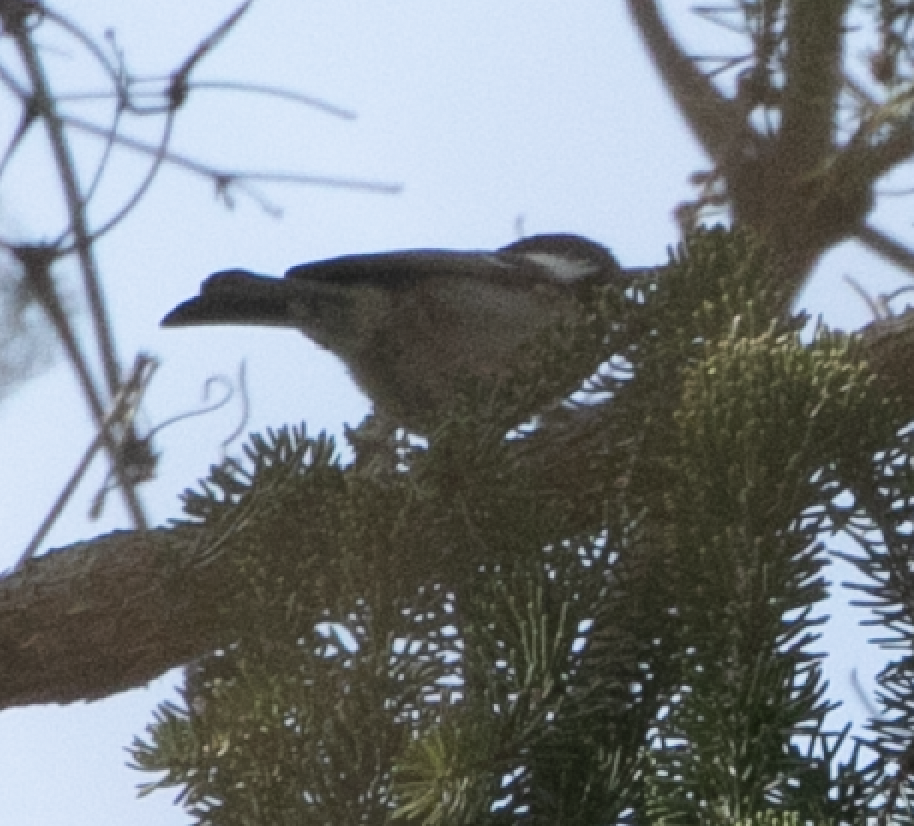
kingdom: Animalia
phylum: Chordata
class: Aves
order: Passeriformes
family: Paridae
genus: Periparus
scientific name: Periparus ater
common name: Coal tit
